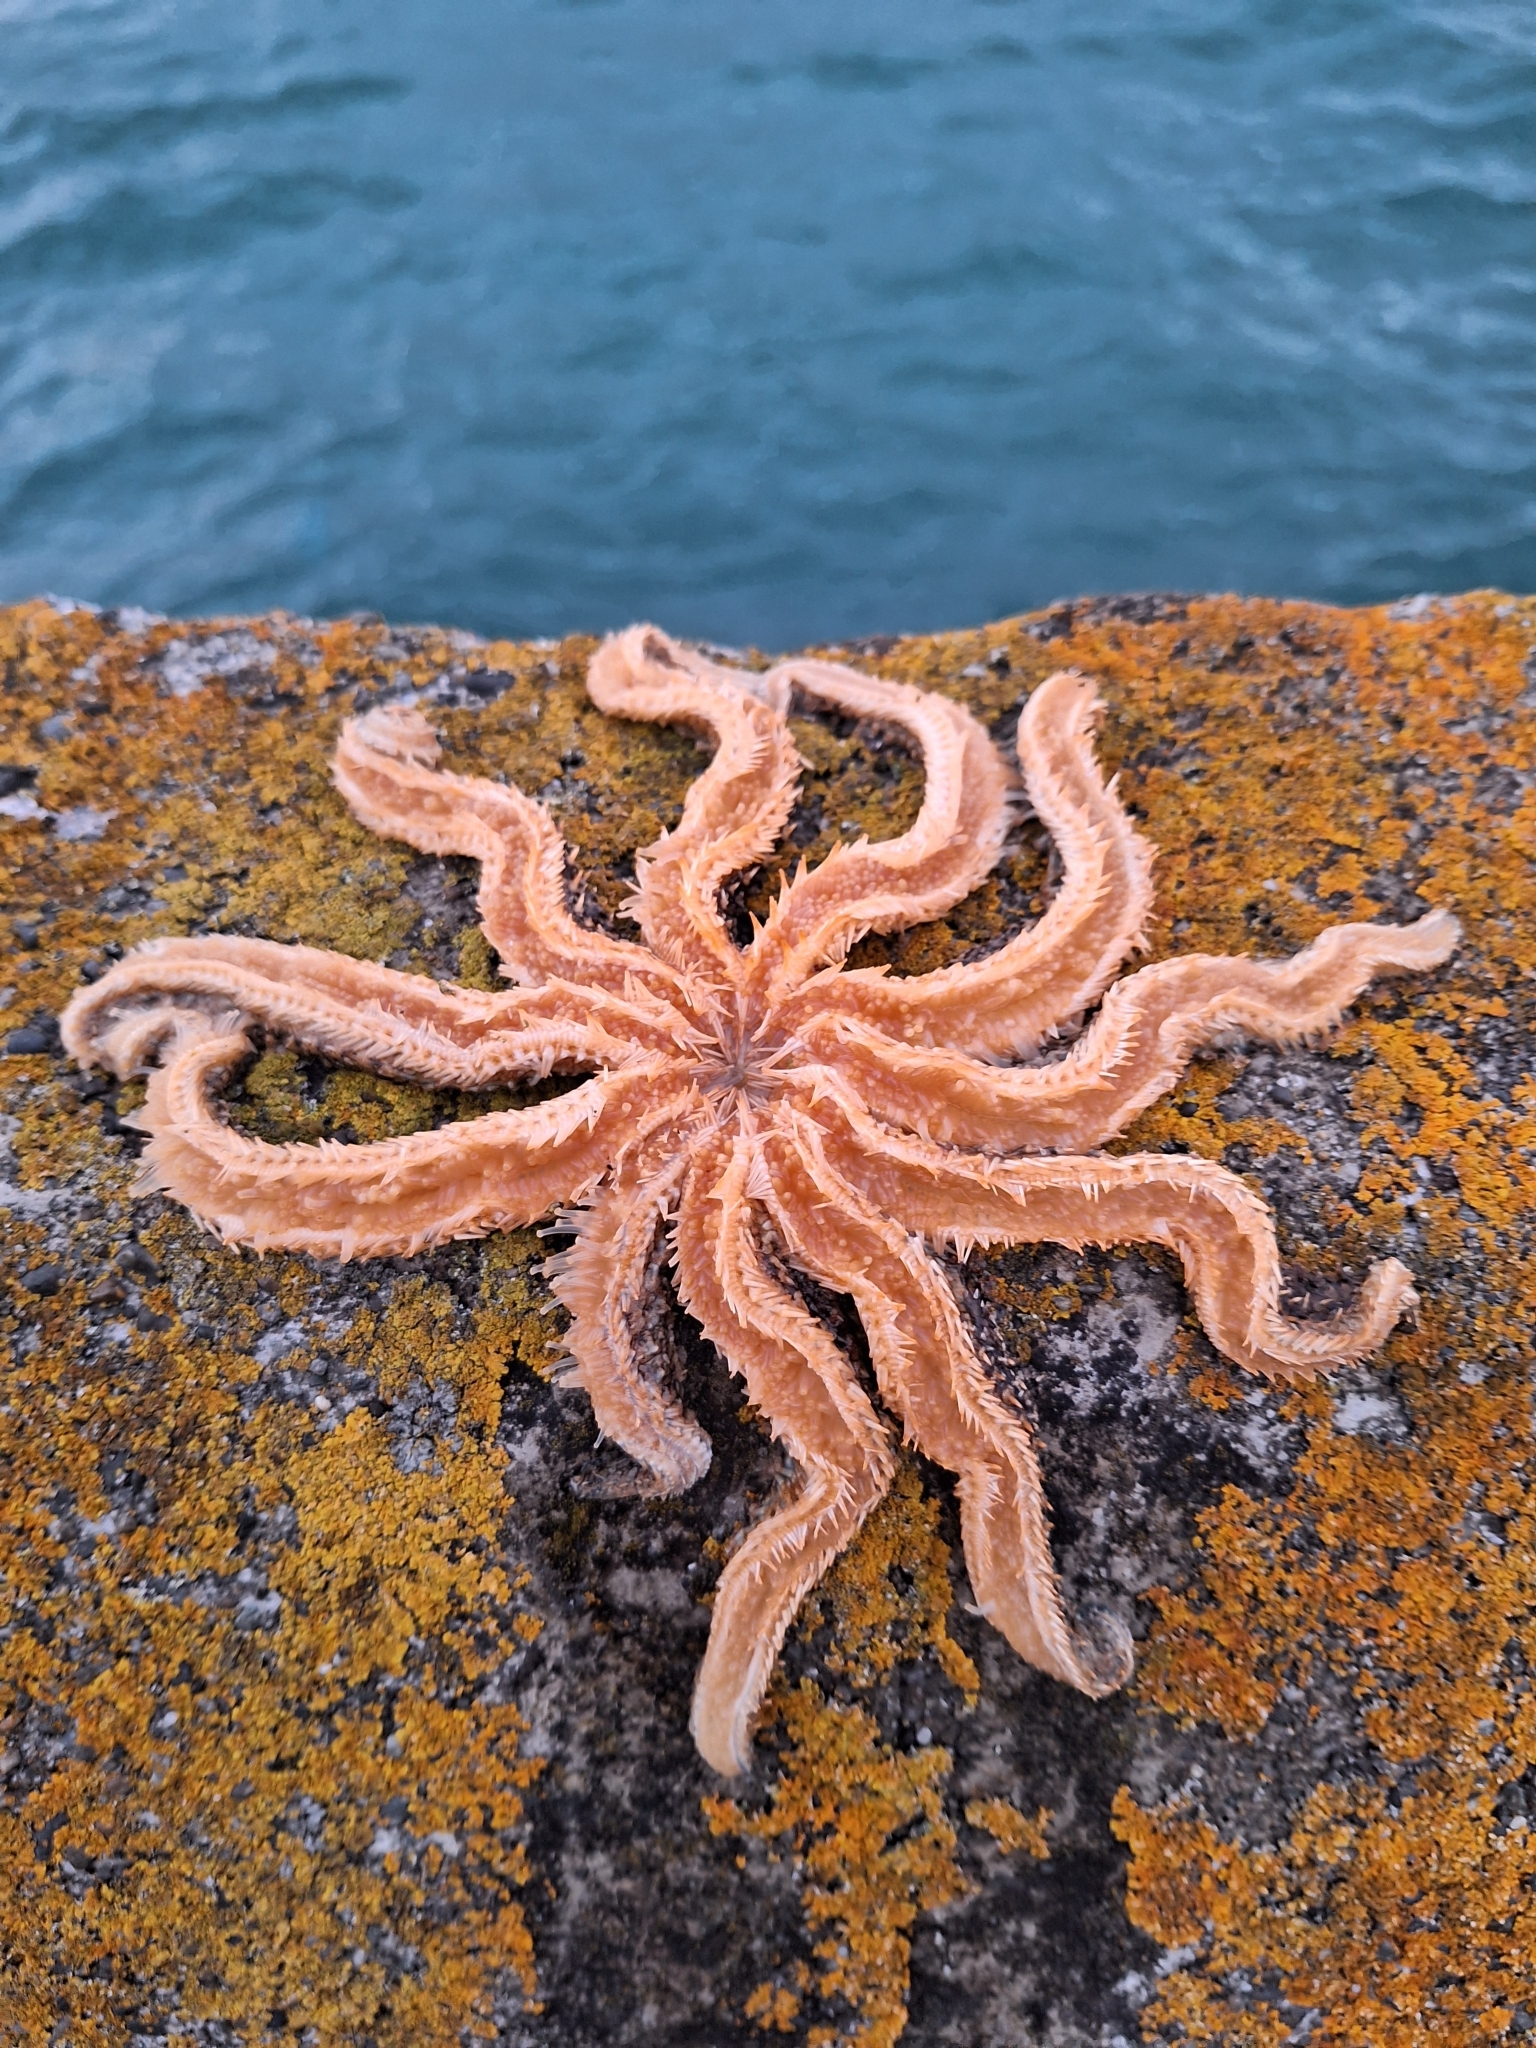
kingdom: Animalia
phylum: Echinodermata
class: Asteroidea
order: Forcipulatida
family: Asteriidae
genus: Coscinasterias
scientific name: Coscinasterias muricata
